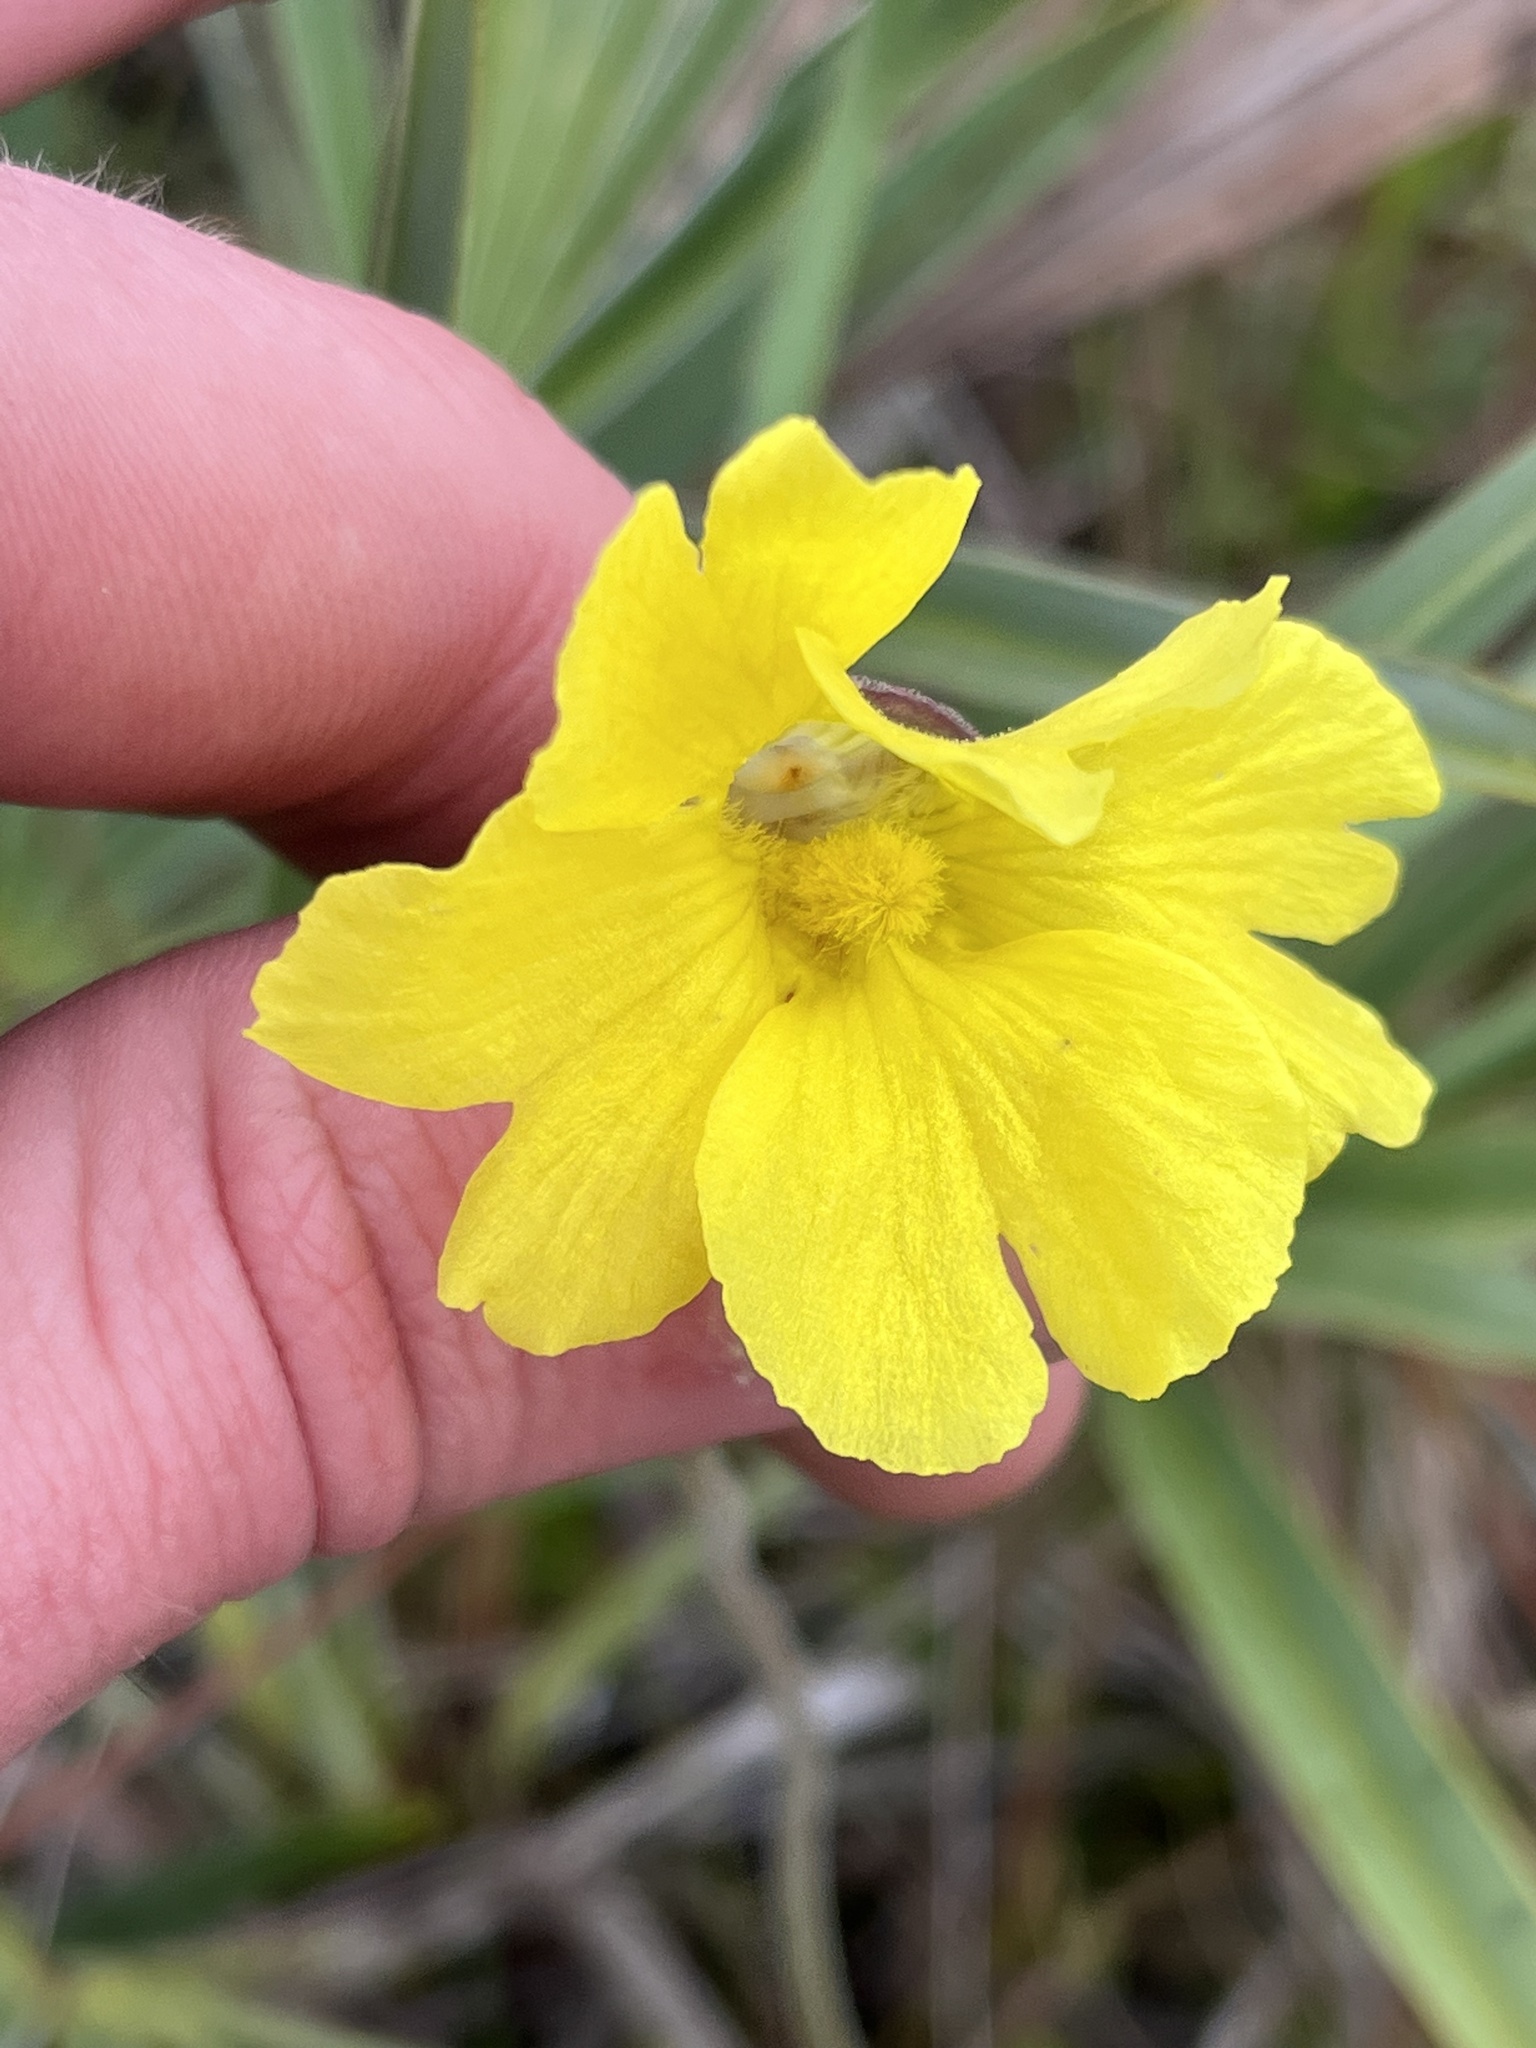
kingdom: Plantae
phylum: Tracheophyta
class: Magnoliopsida
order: Lamiales
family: Lentibulariaceae
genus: Pinguicula
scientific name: Pinguicula lutea
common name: Yellow butterwort
